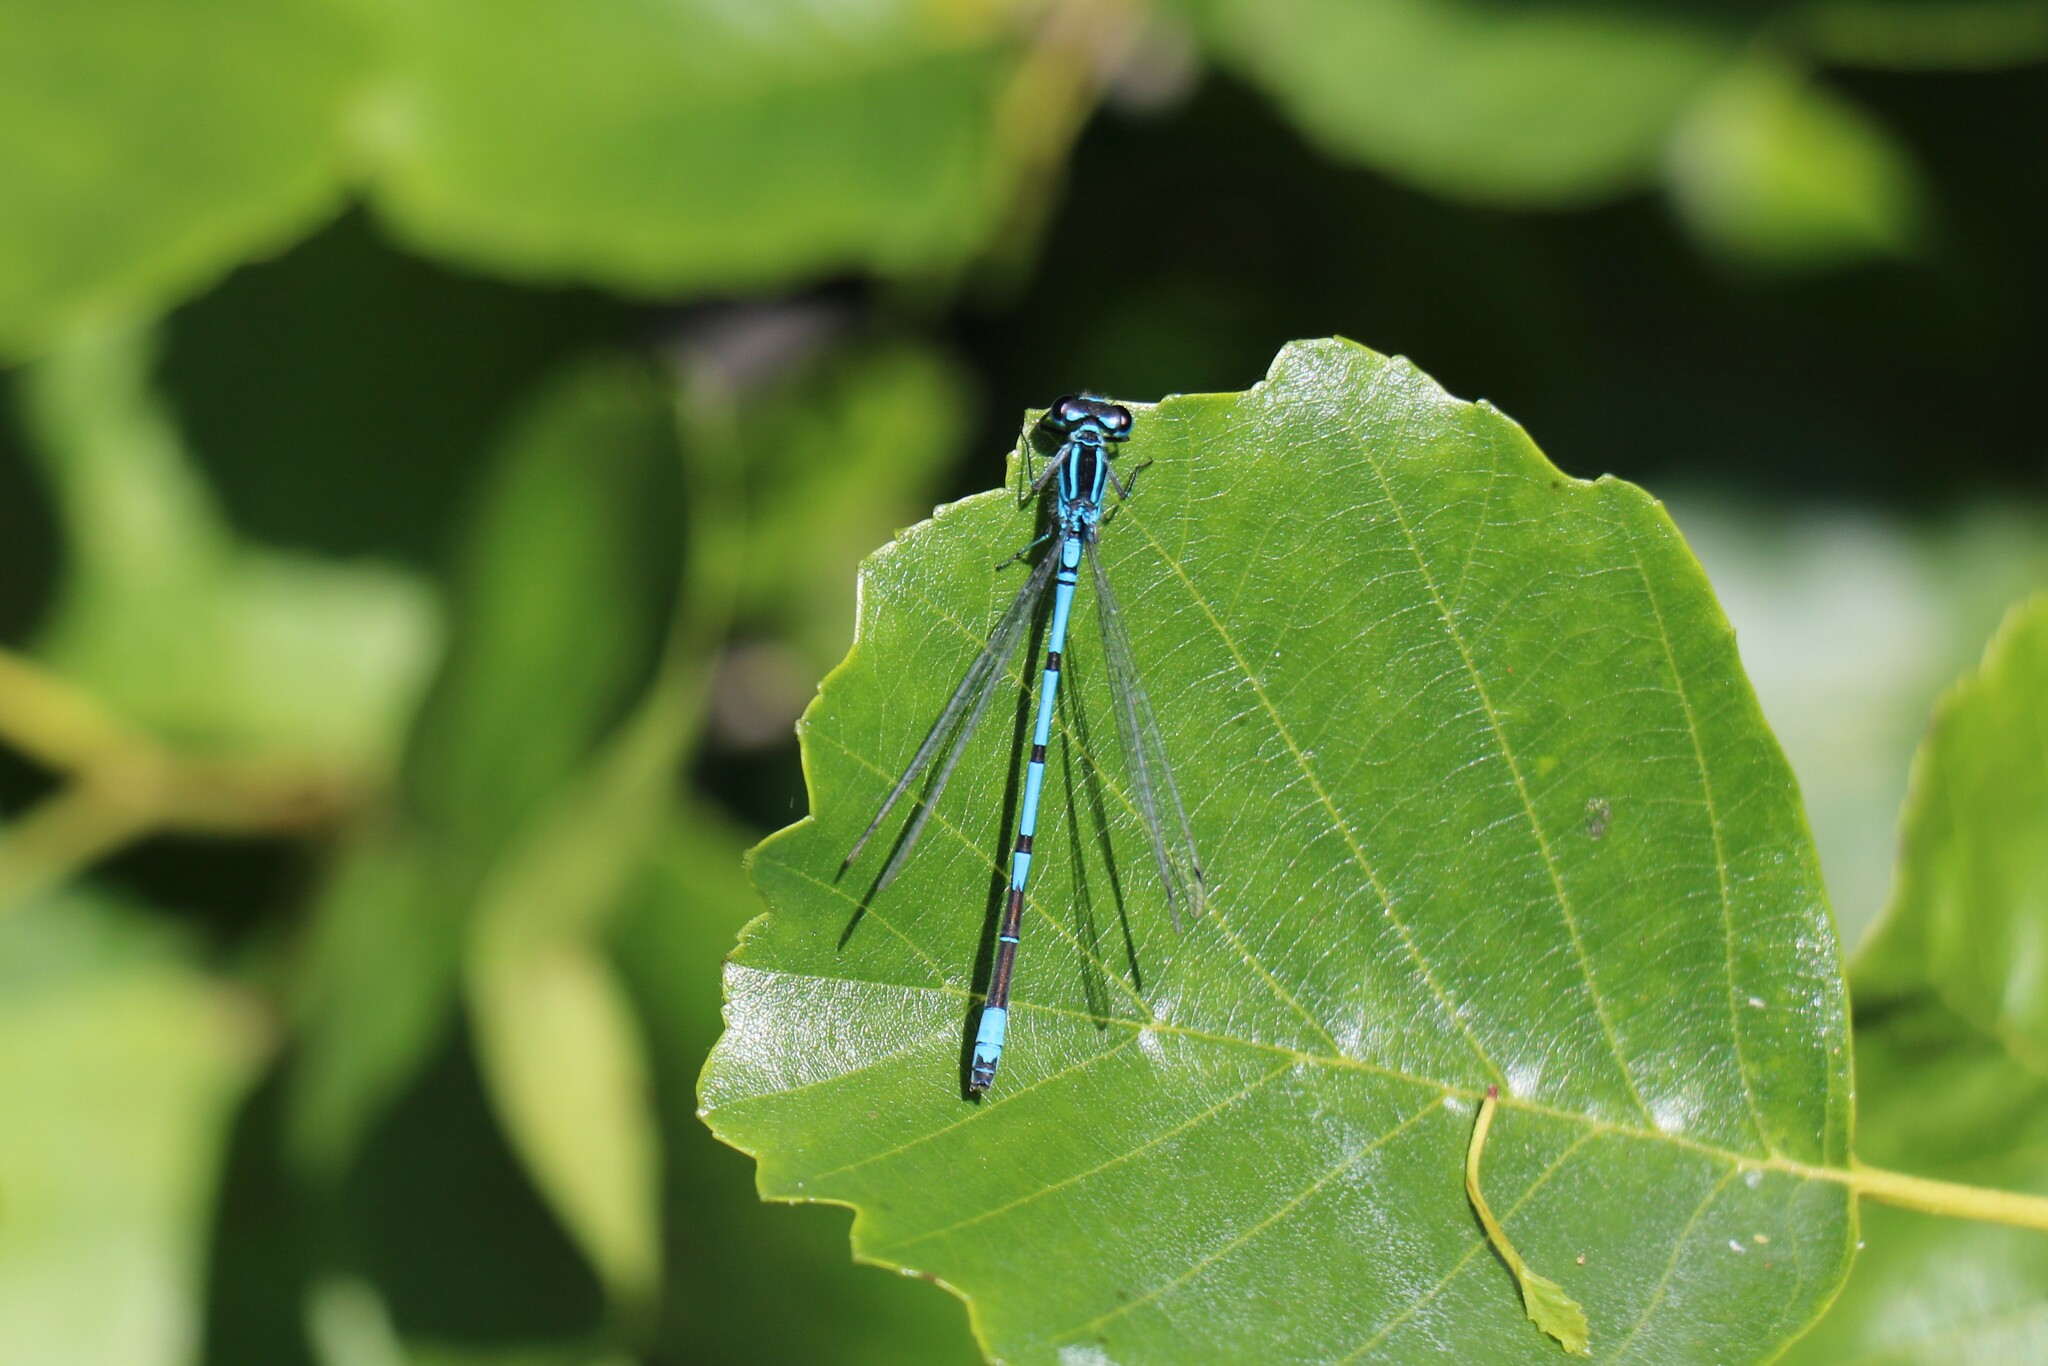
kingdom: Animalia
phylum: Arthropoda
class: Insecta
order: Odonata
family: Coenagrionidae
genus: Coenagrion
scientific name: Coenagrion puella
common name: Azure damselfly
